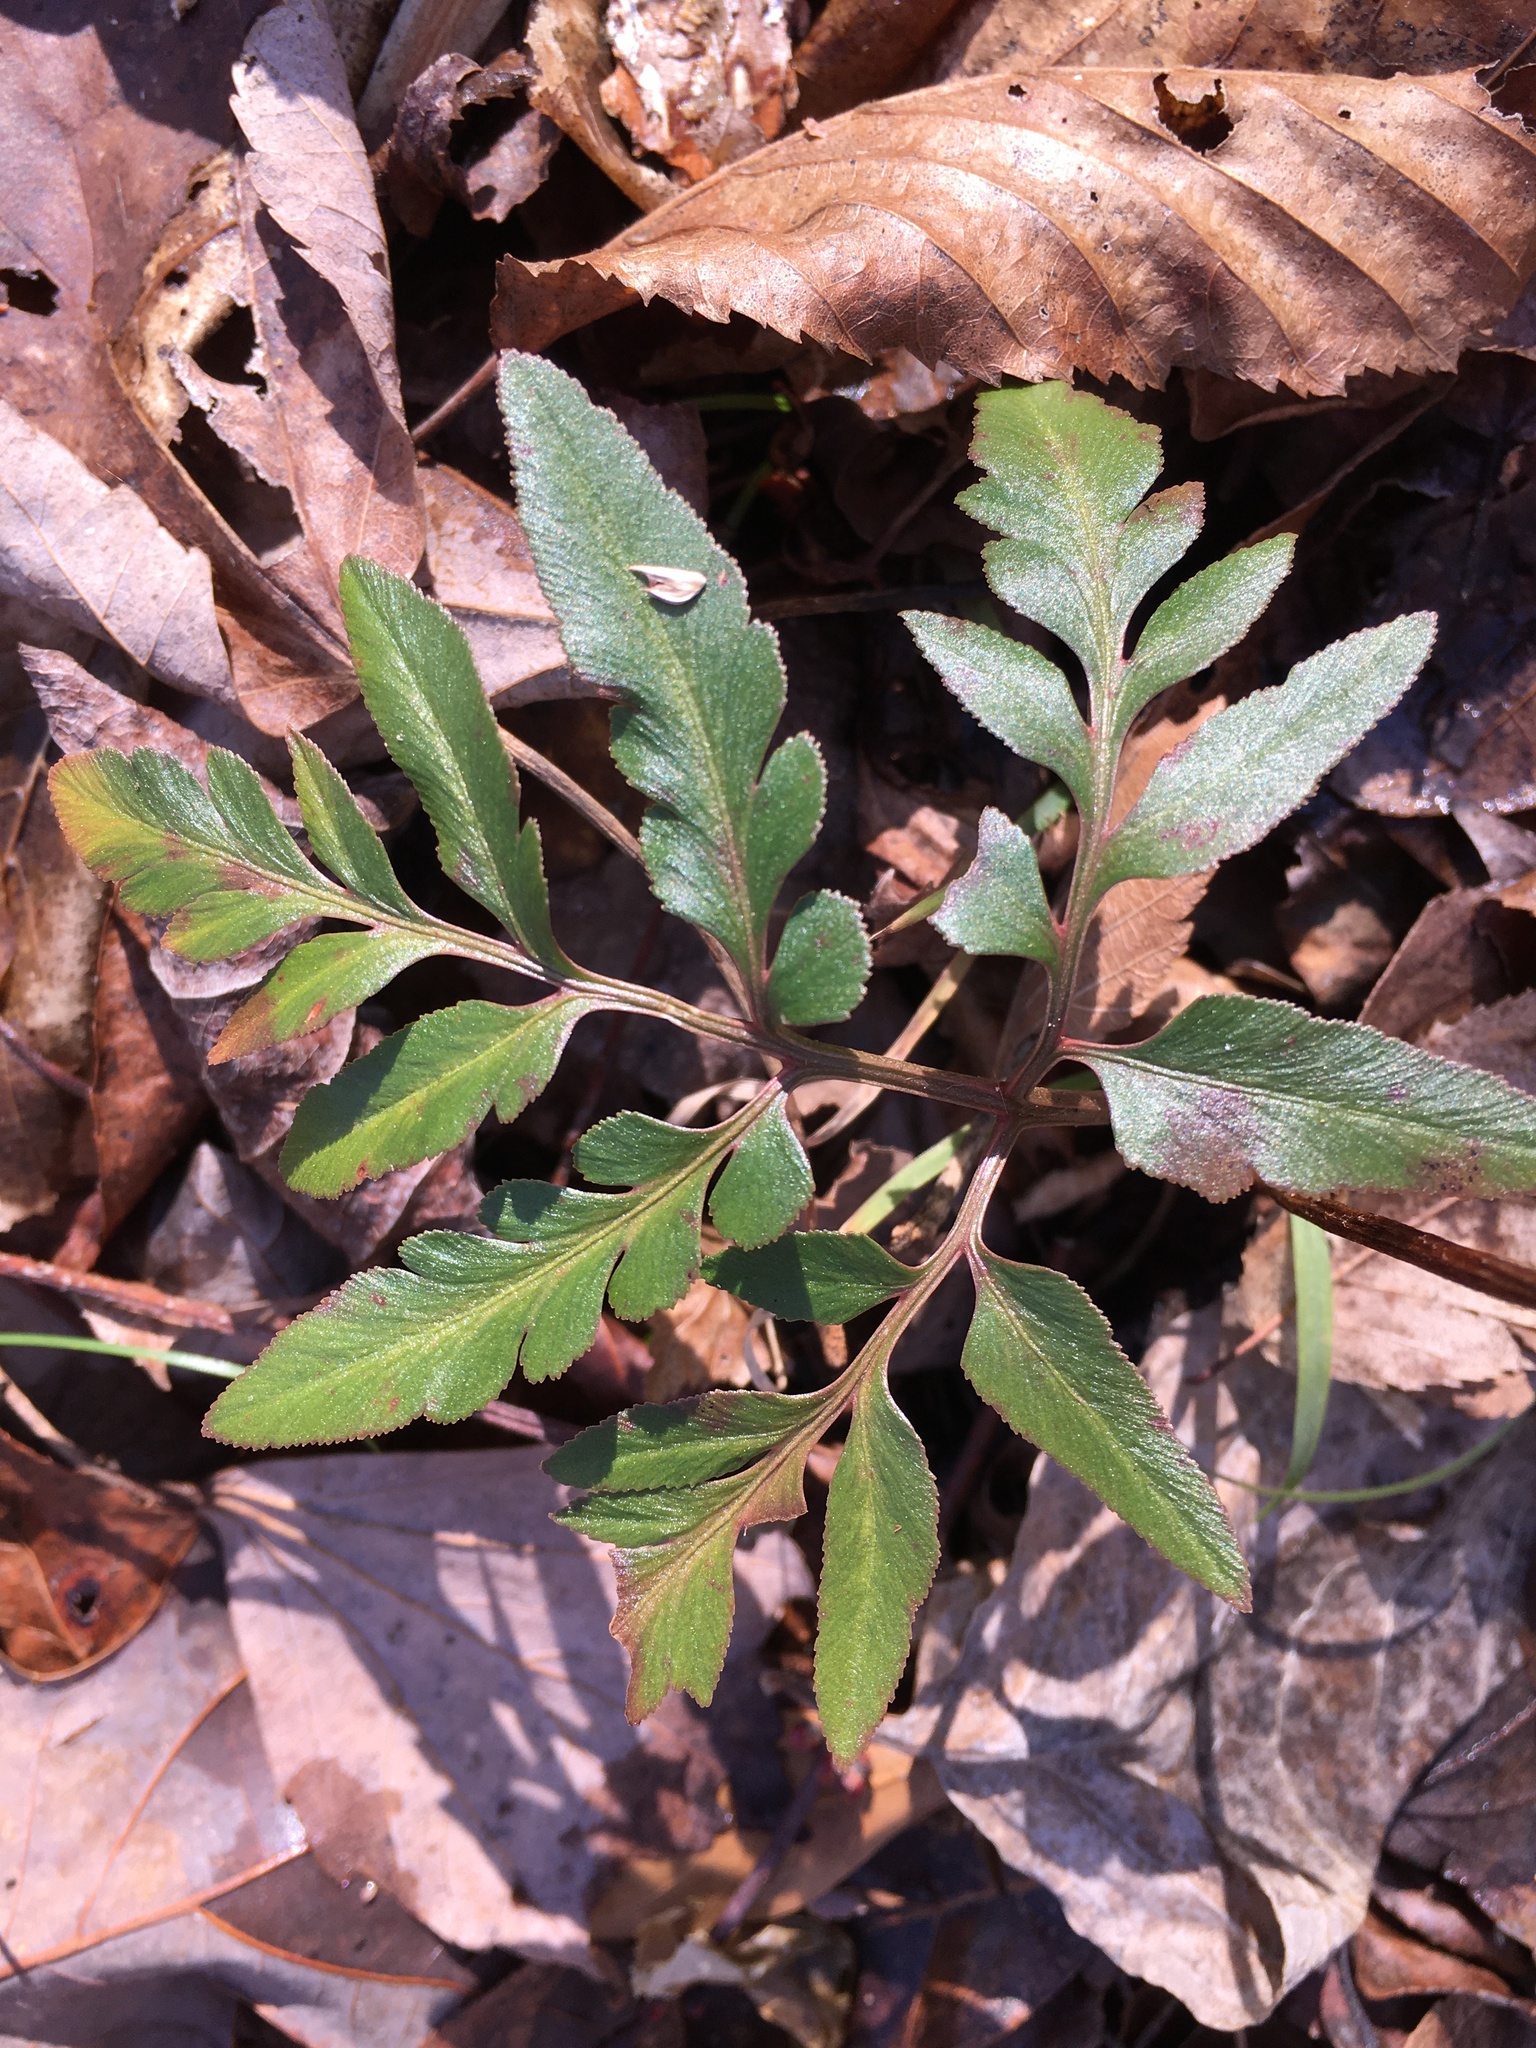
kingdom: Plantae
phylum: Tracheophyta
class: Polypodiopsida
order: Ophioglossales
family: Ophioglossaceae
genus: Sceptridium
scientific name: Sceptridium biternatum
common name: Sparse-lobed grapefern
